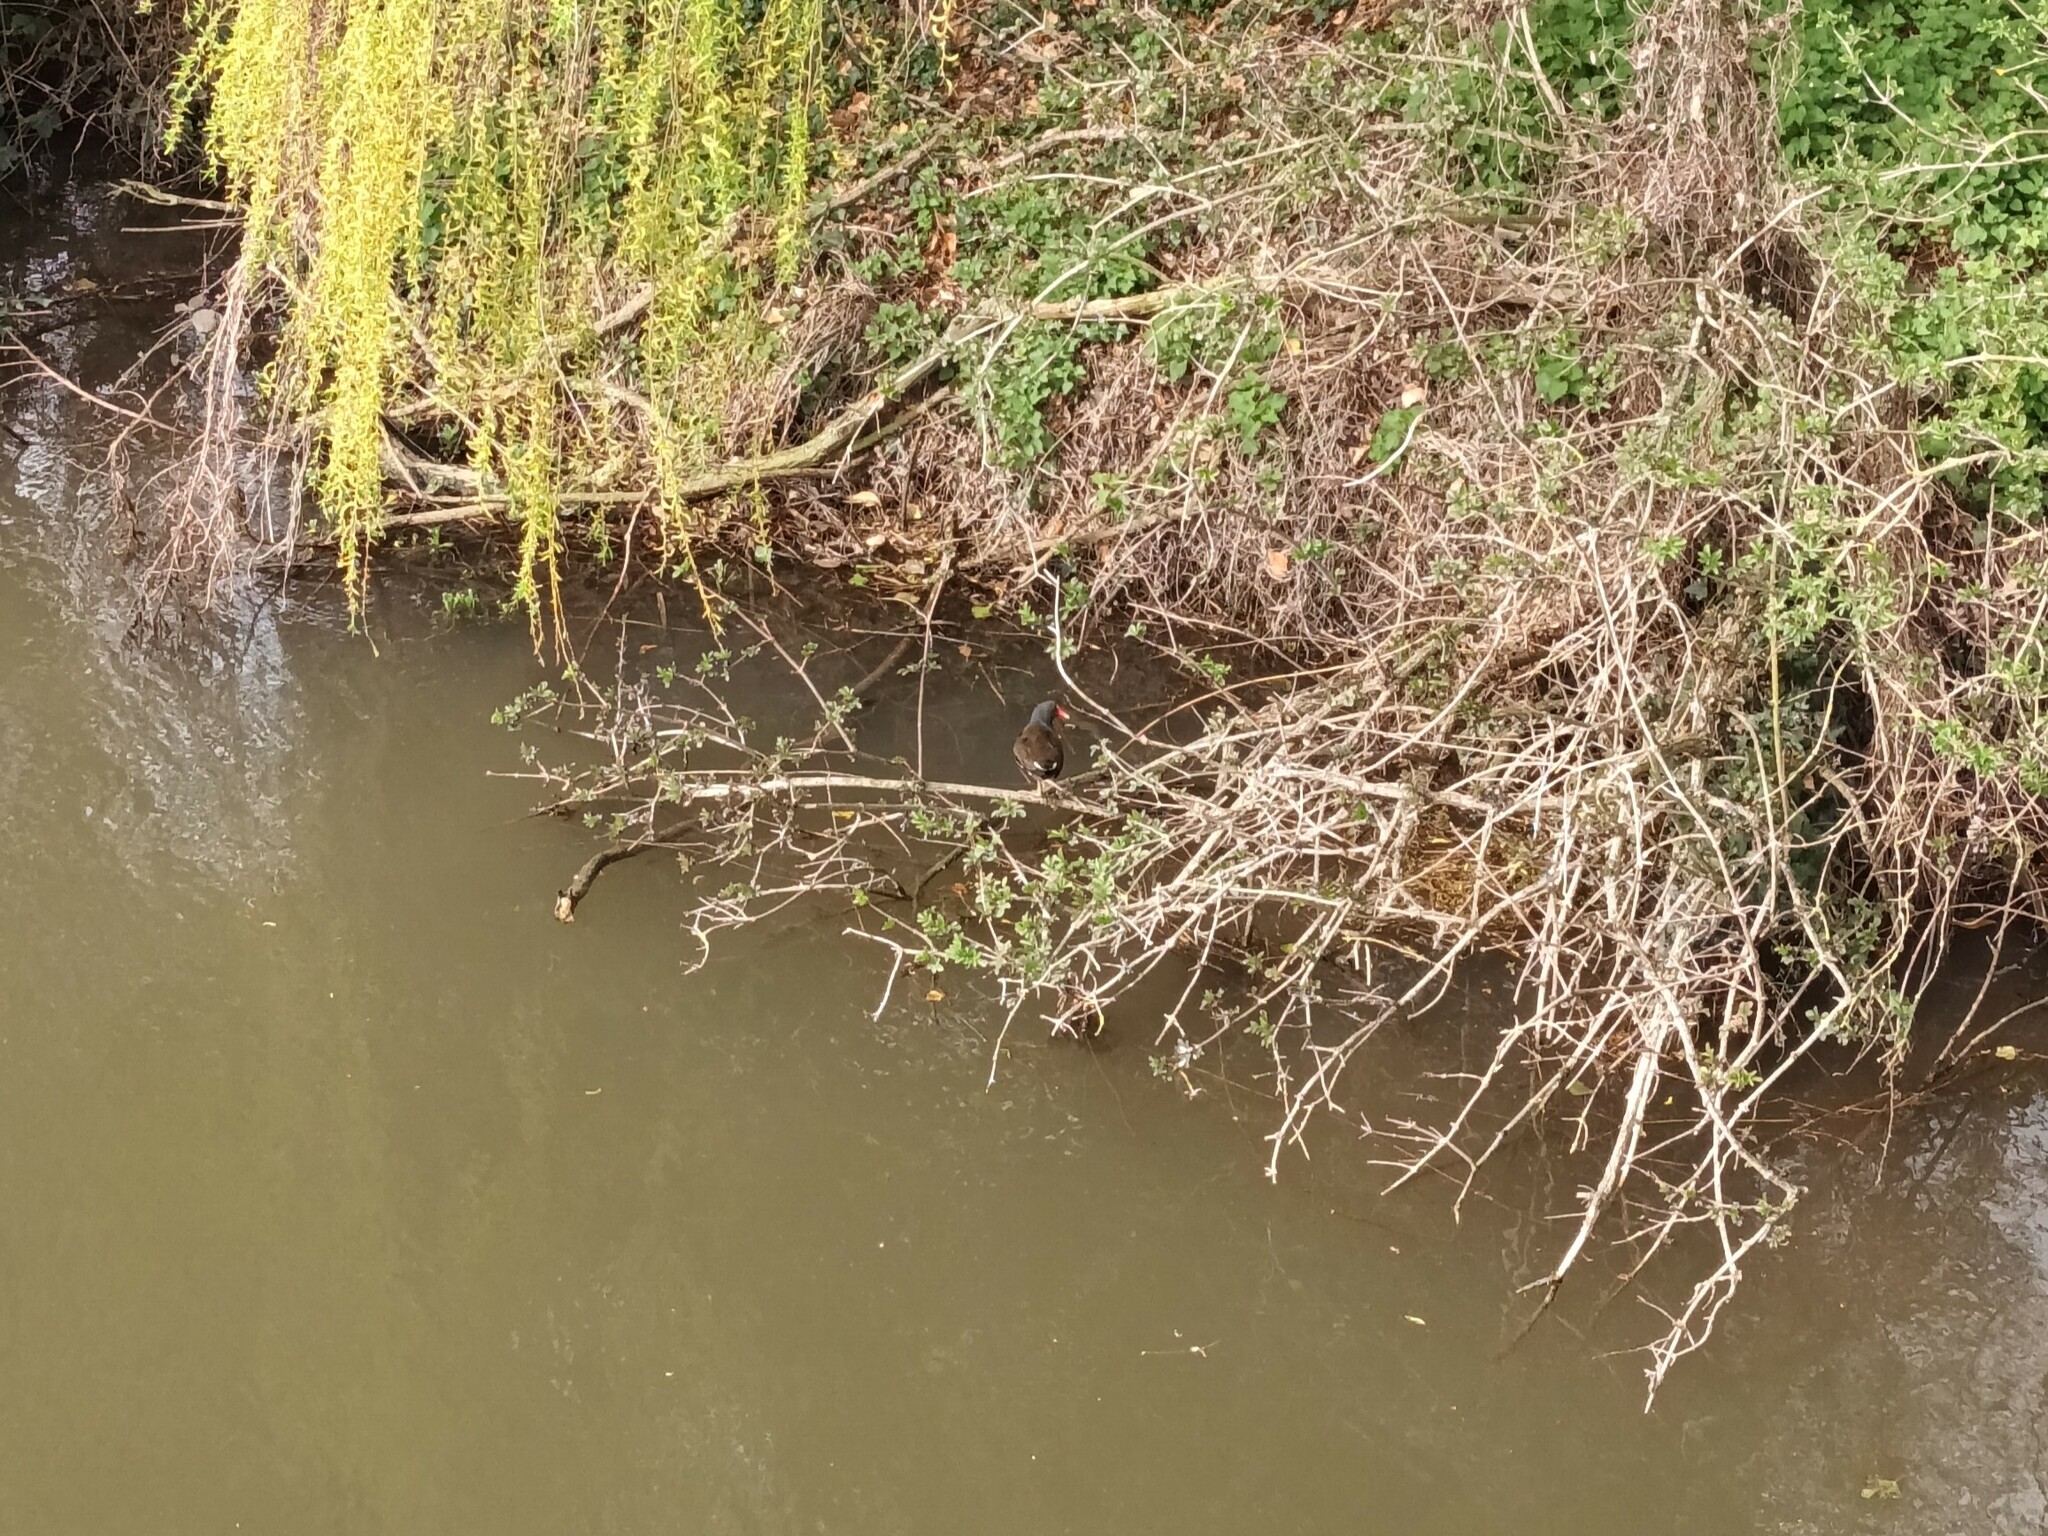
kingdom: Animalia
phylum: Chordata
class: Aves
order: Gruiformes
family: Rallidae
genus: Gallinula
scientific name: Gallinula chloropus
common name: Common moorhen
